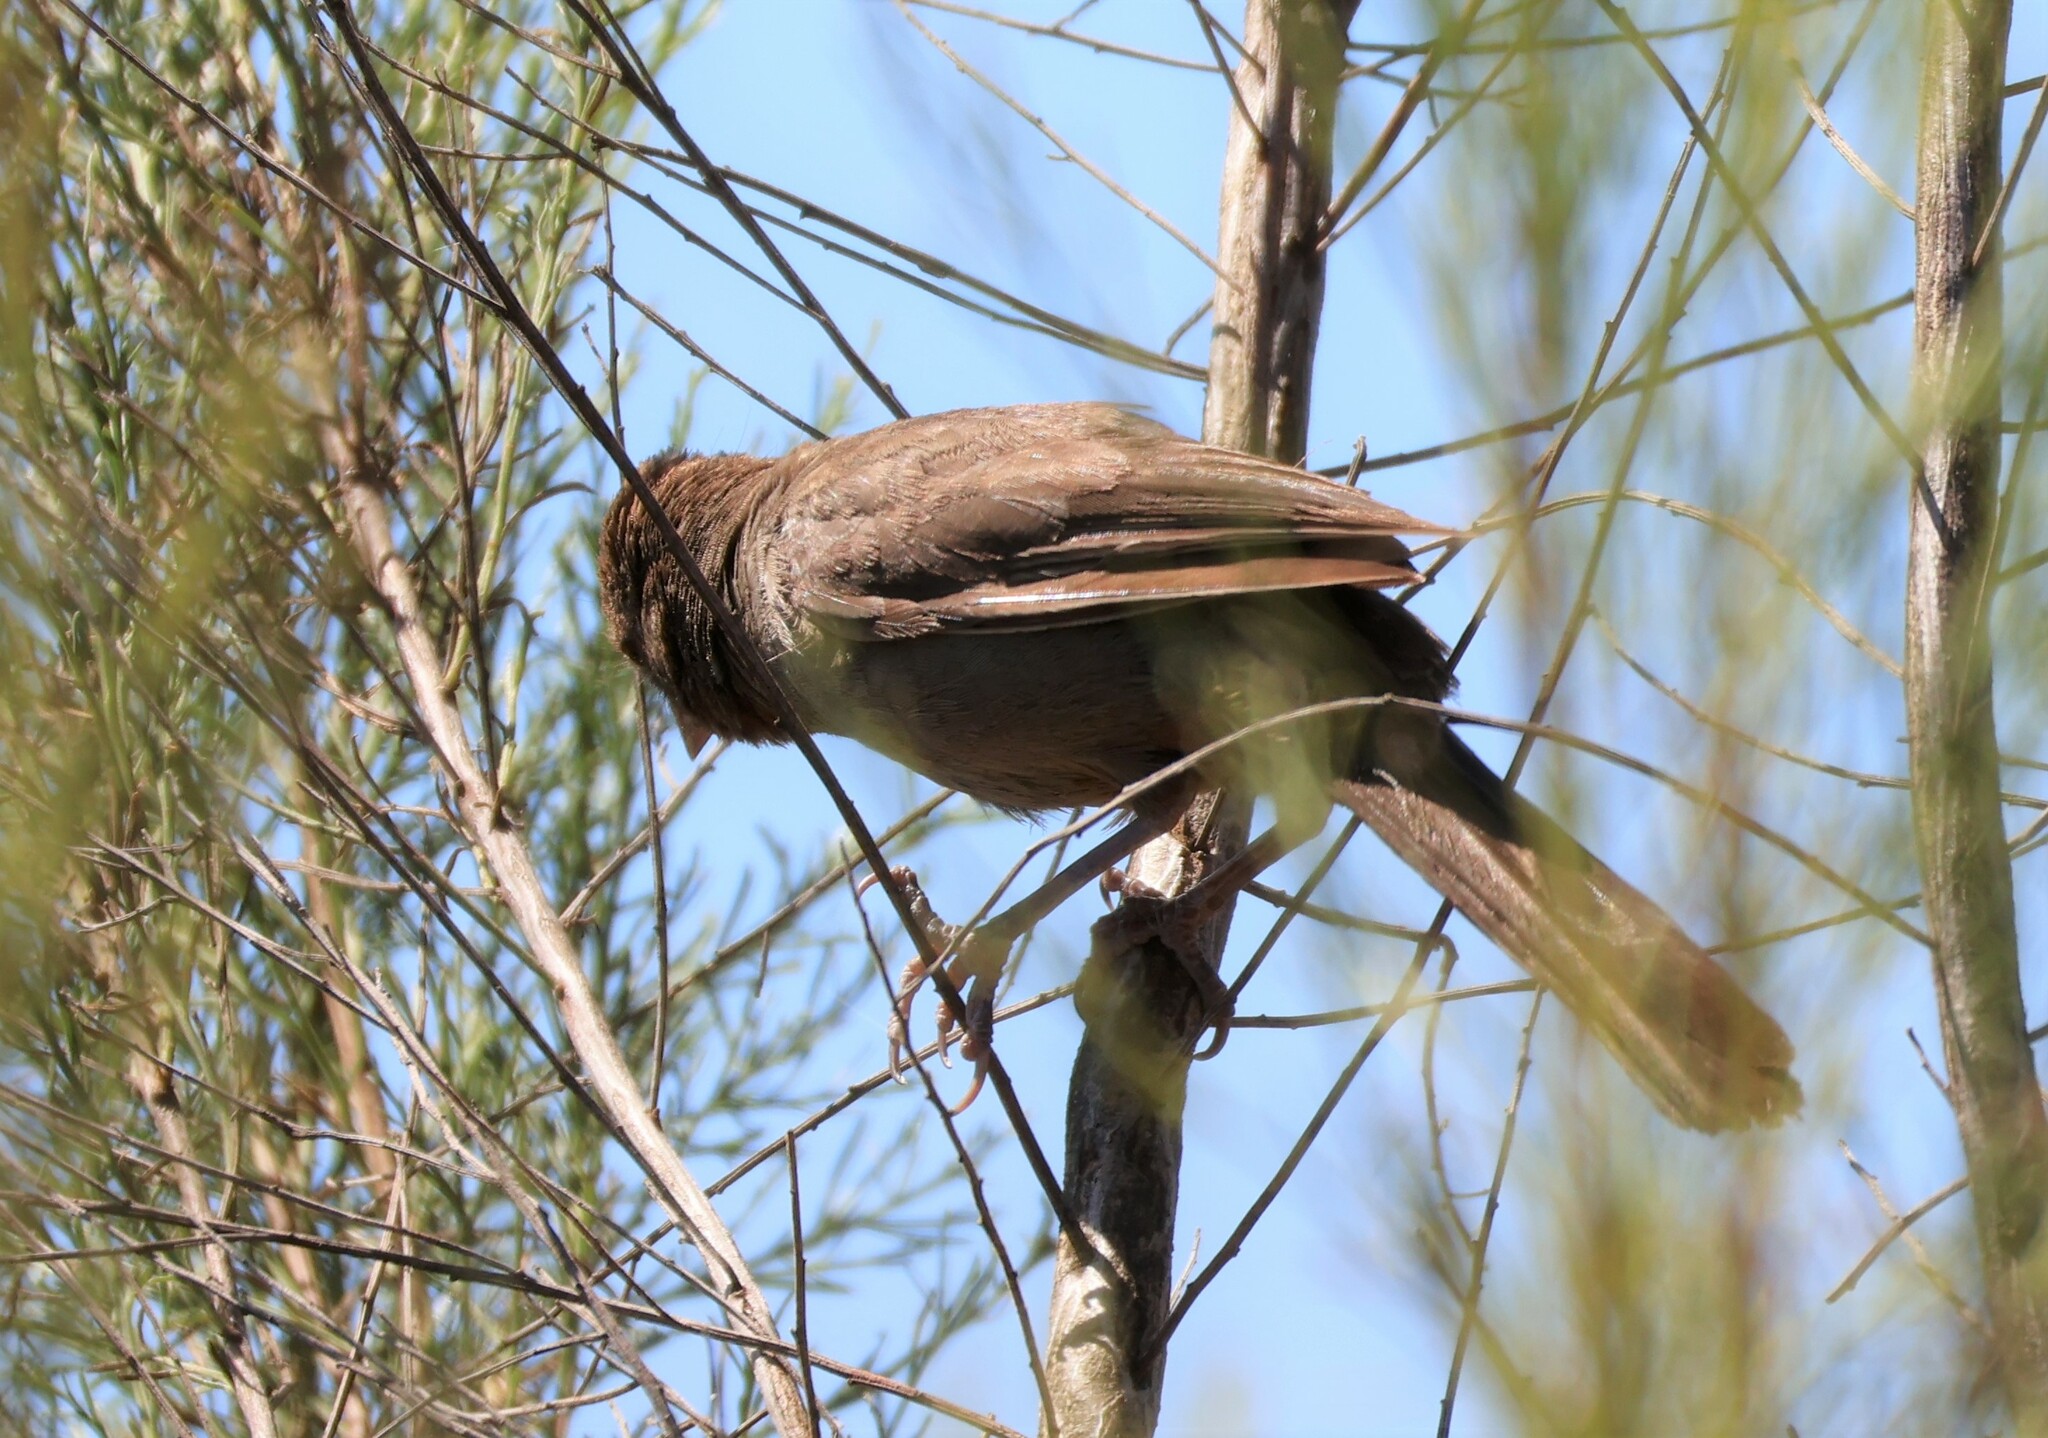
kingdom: Animalia
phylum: Chordata
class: Aves
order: Passeriformes
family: Passerellidae
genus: Melozone
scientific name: Melozone crissalis
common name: California towhee
